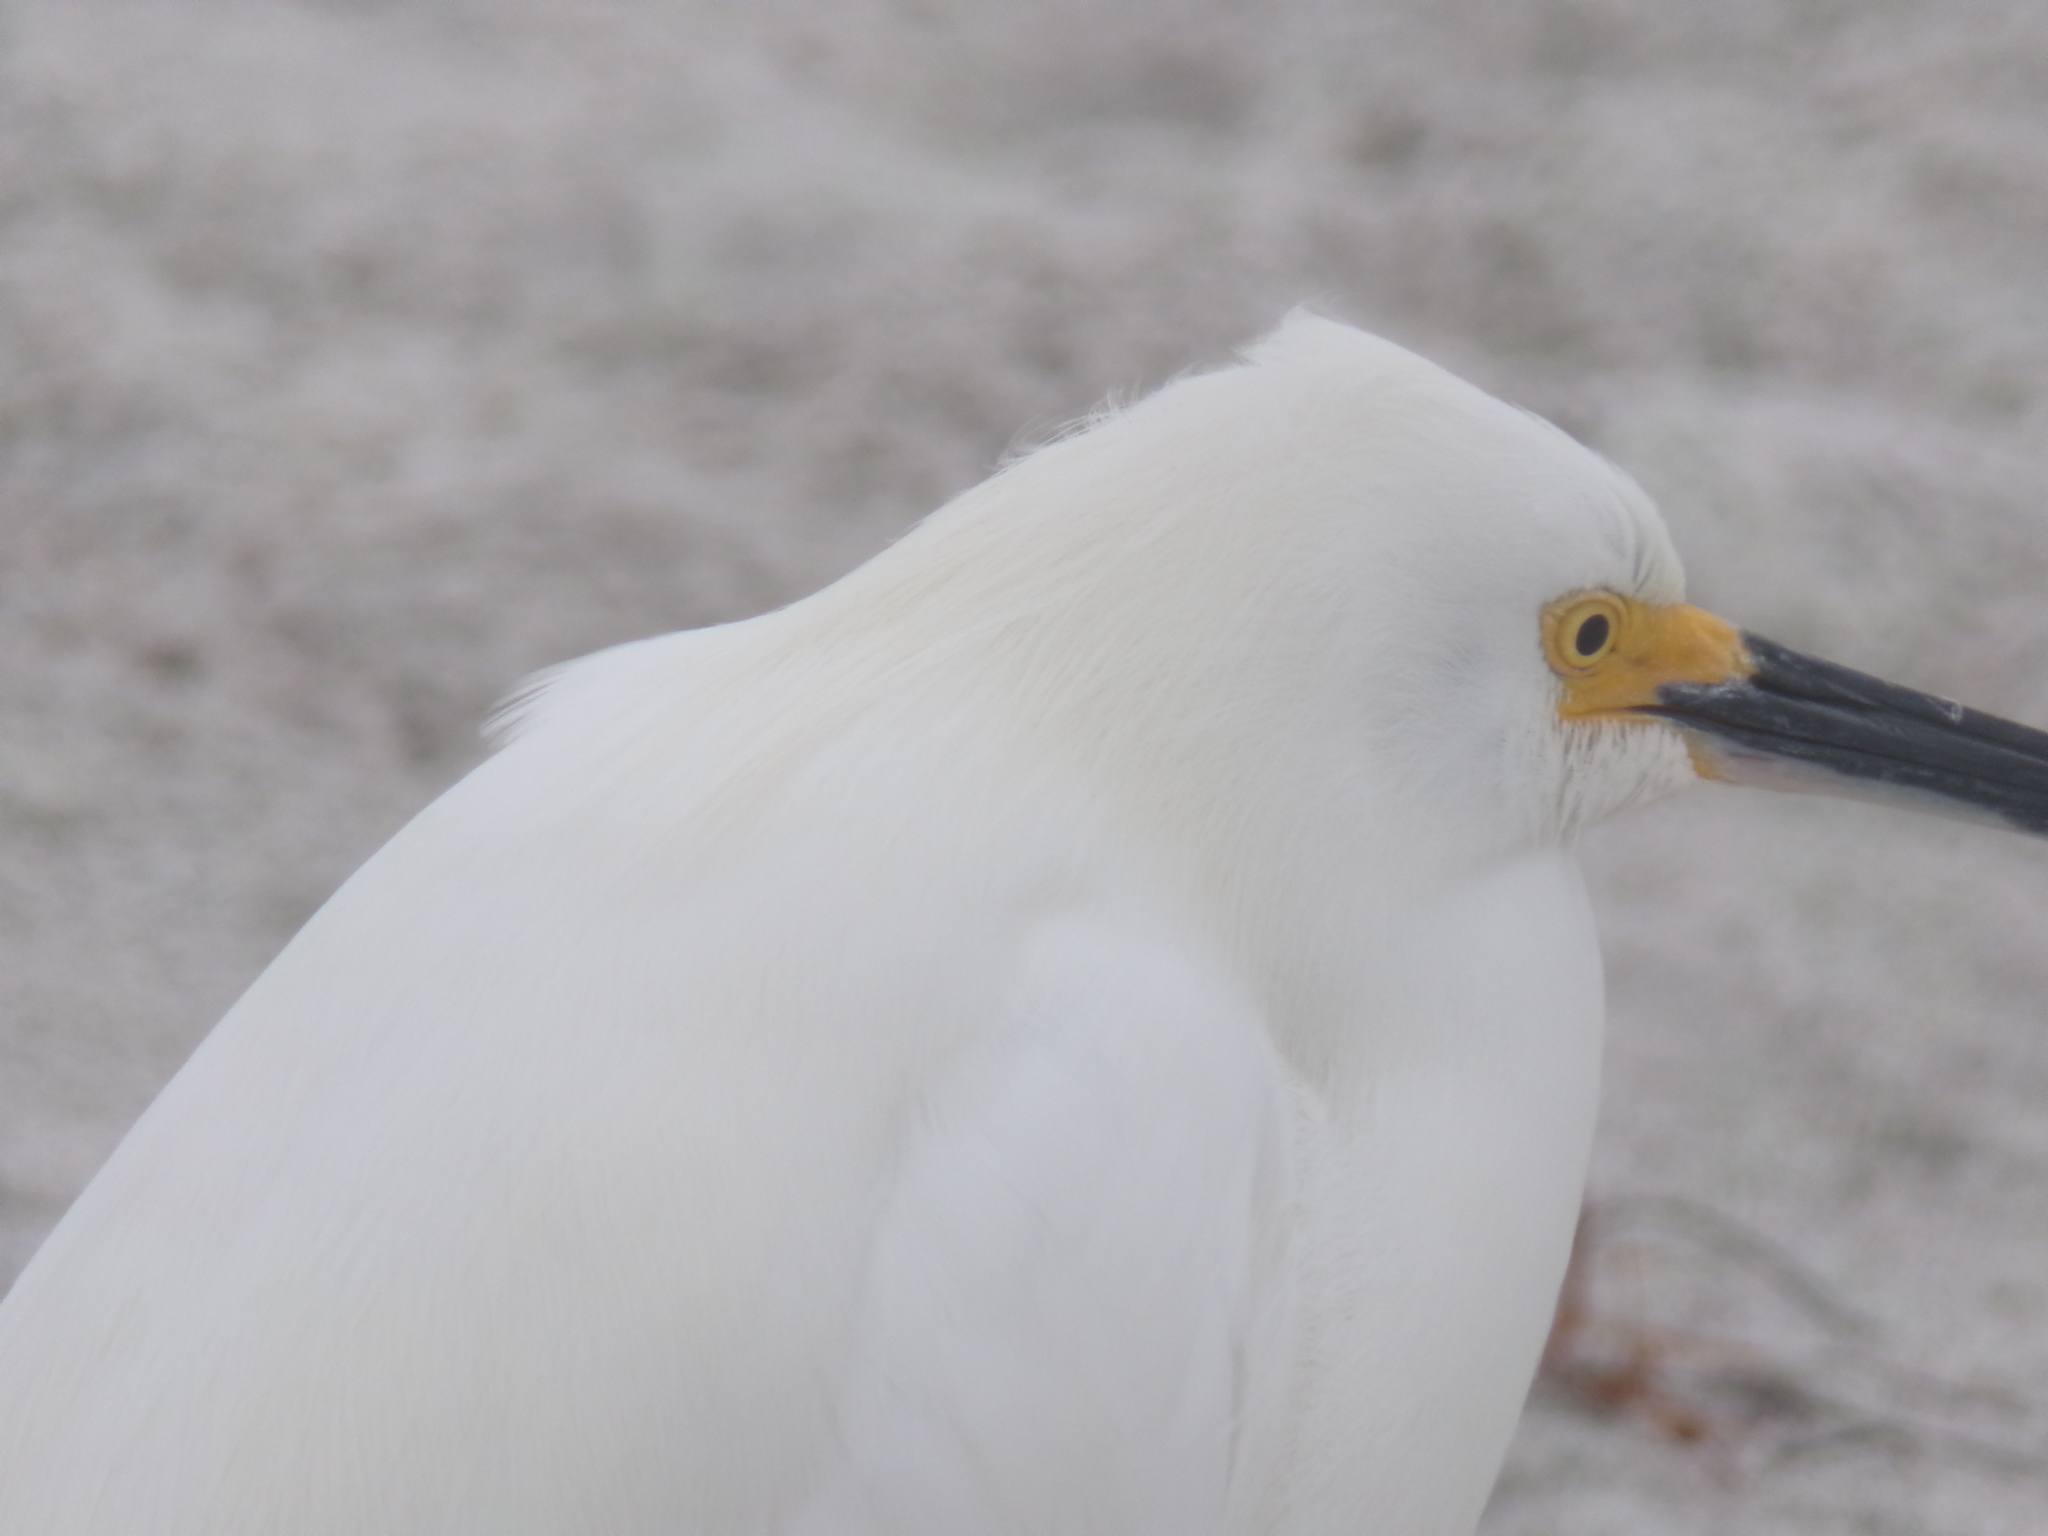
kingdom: Animalia
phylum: Chordata
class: Aves
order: Pelecaniformes
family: Ardeidae
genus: Egretta
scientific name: Egretta thula
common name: Snowy egret
